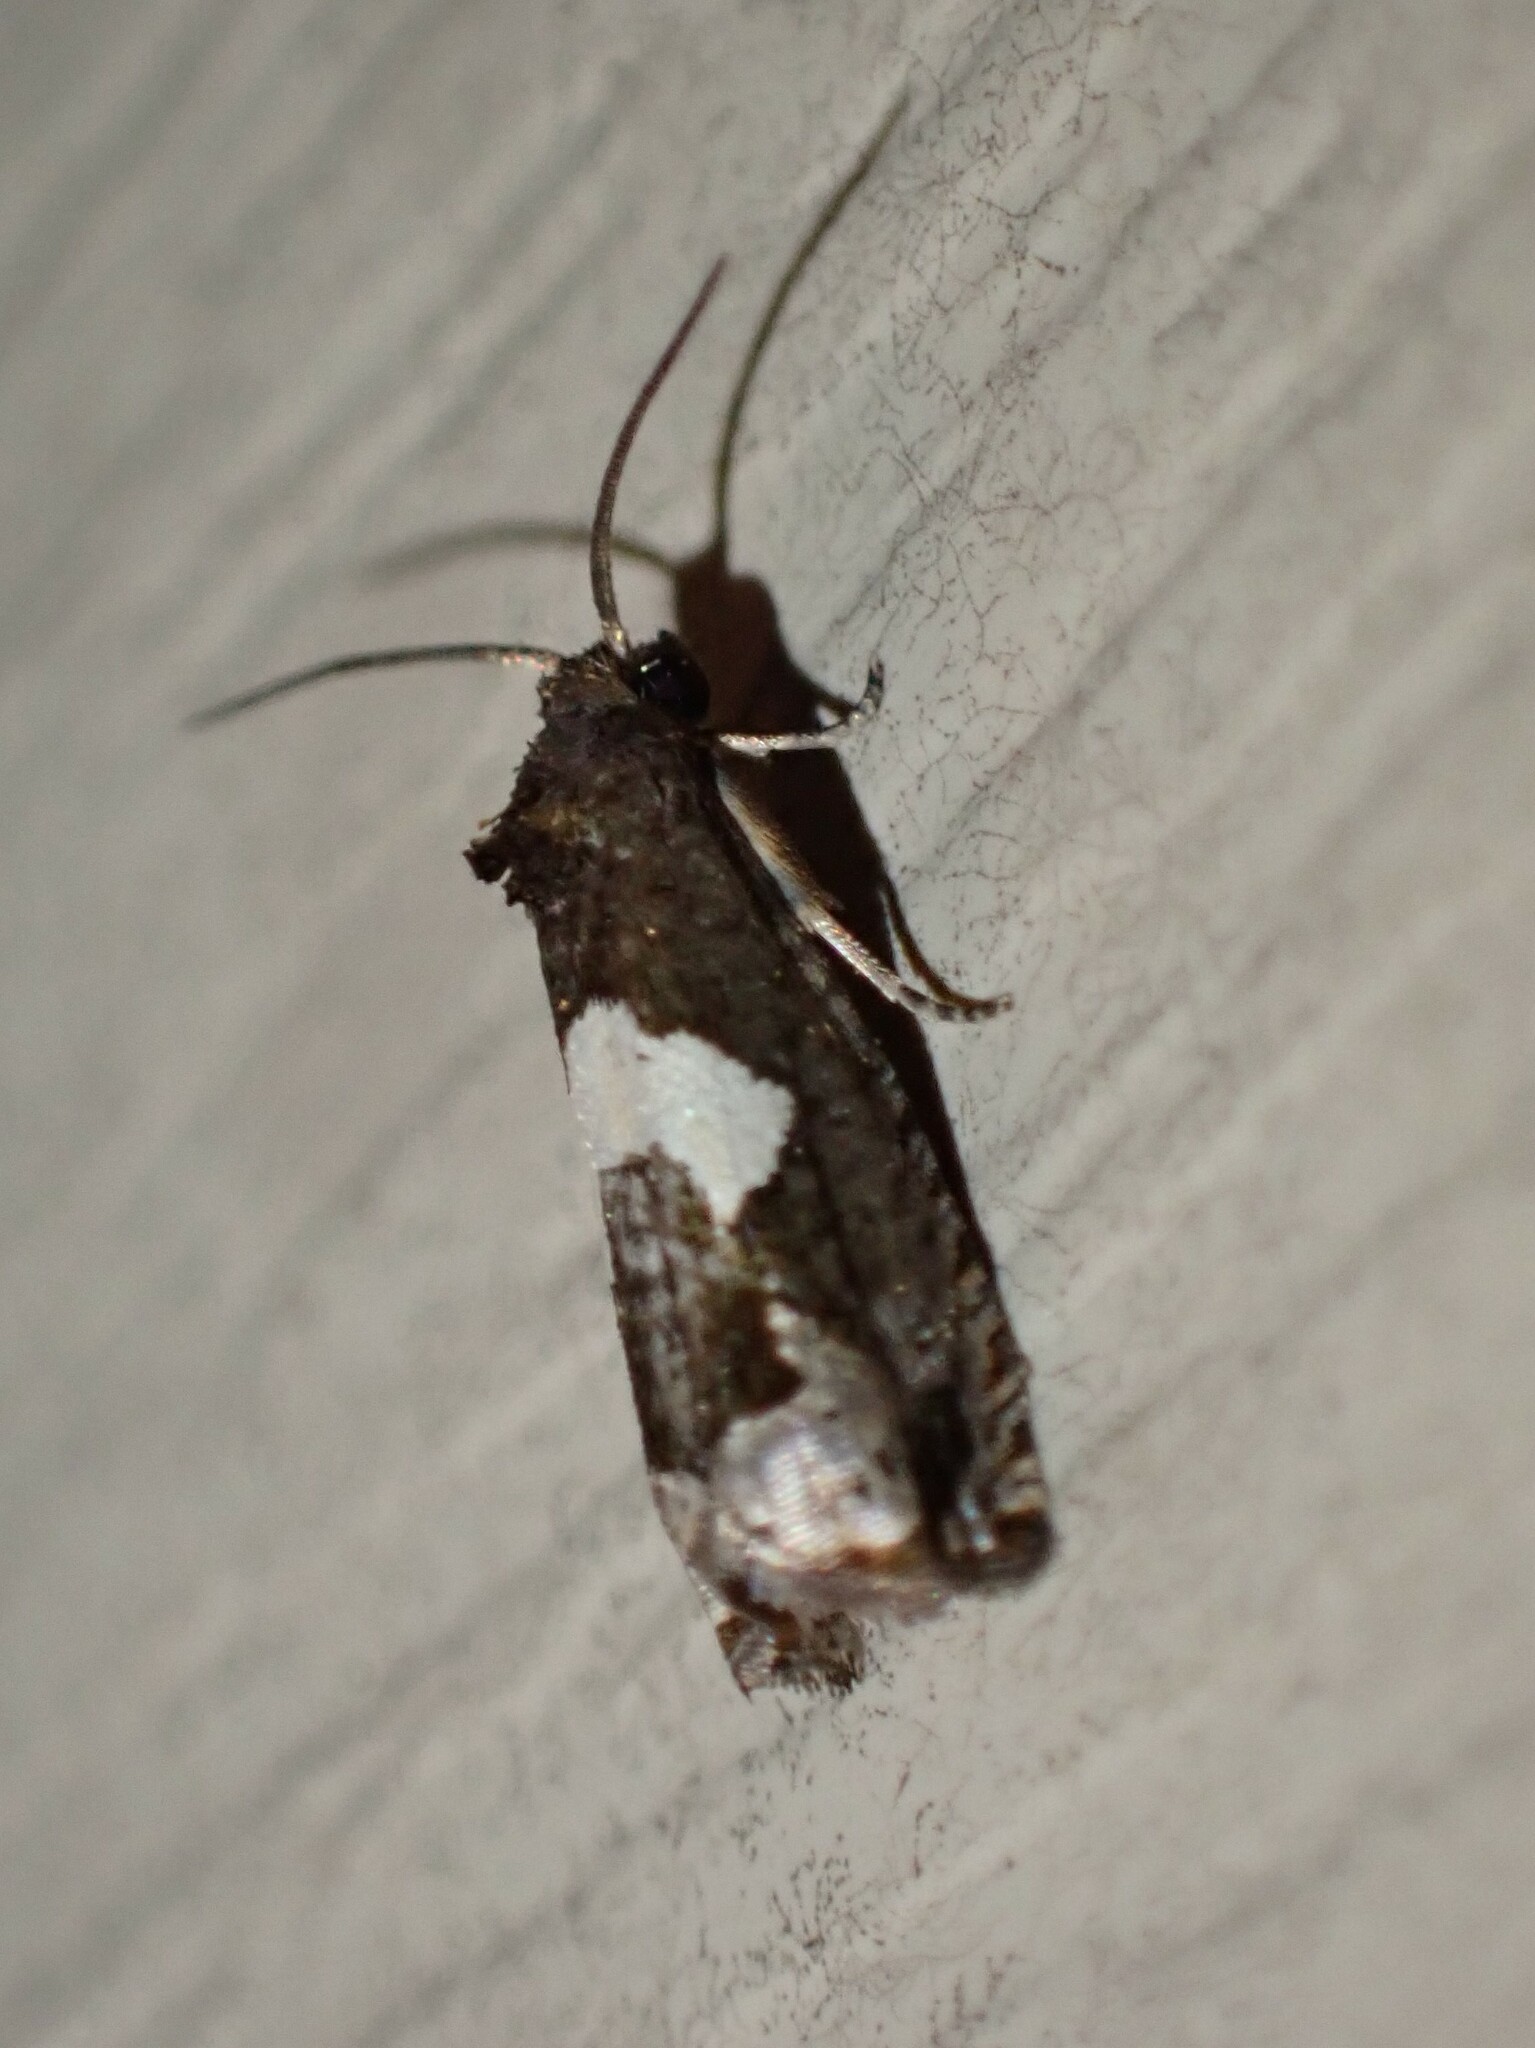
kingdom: Animalia
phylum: Arthropoda
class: Insecta
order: Lepidoptera
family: Tortricidae
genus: Epiblema
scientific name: Epiblema otiosana
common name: Bidens borer moth
